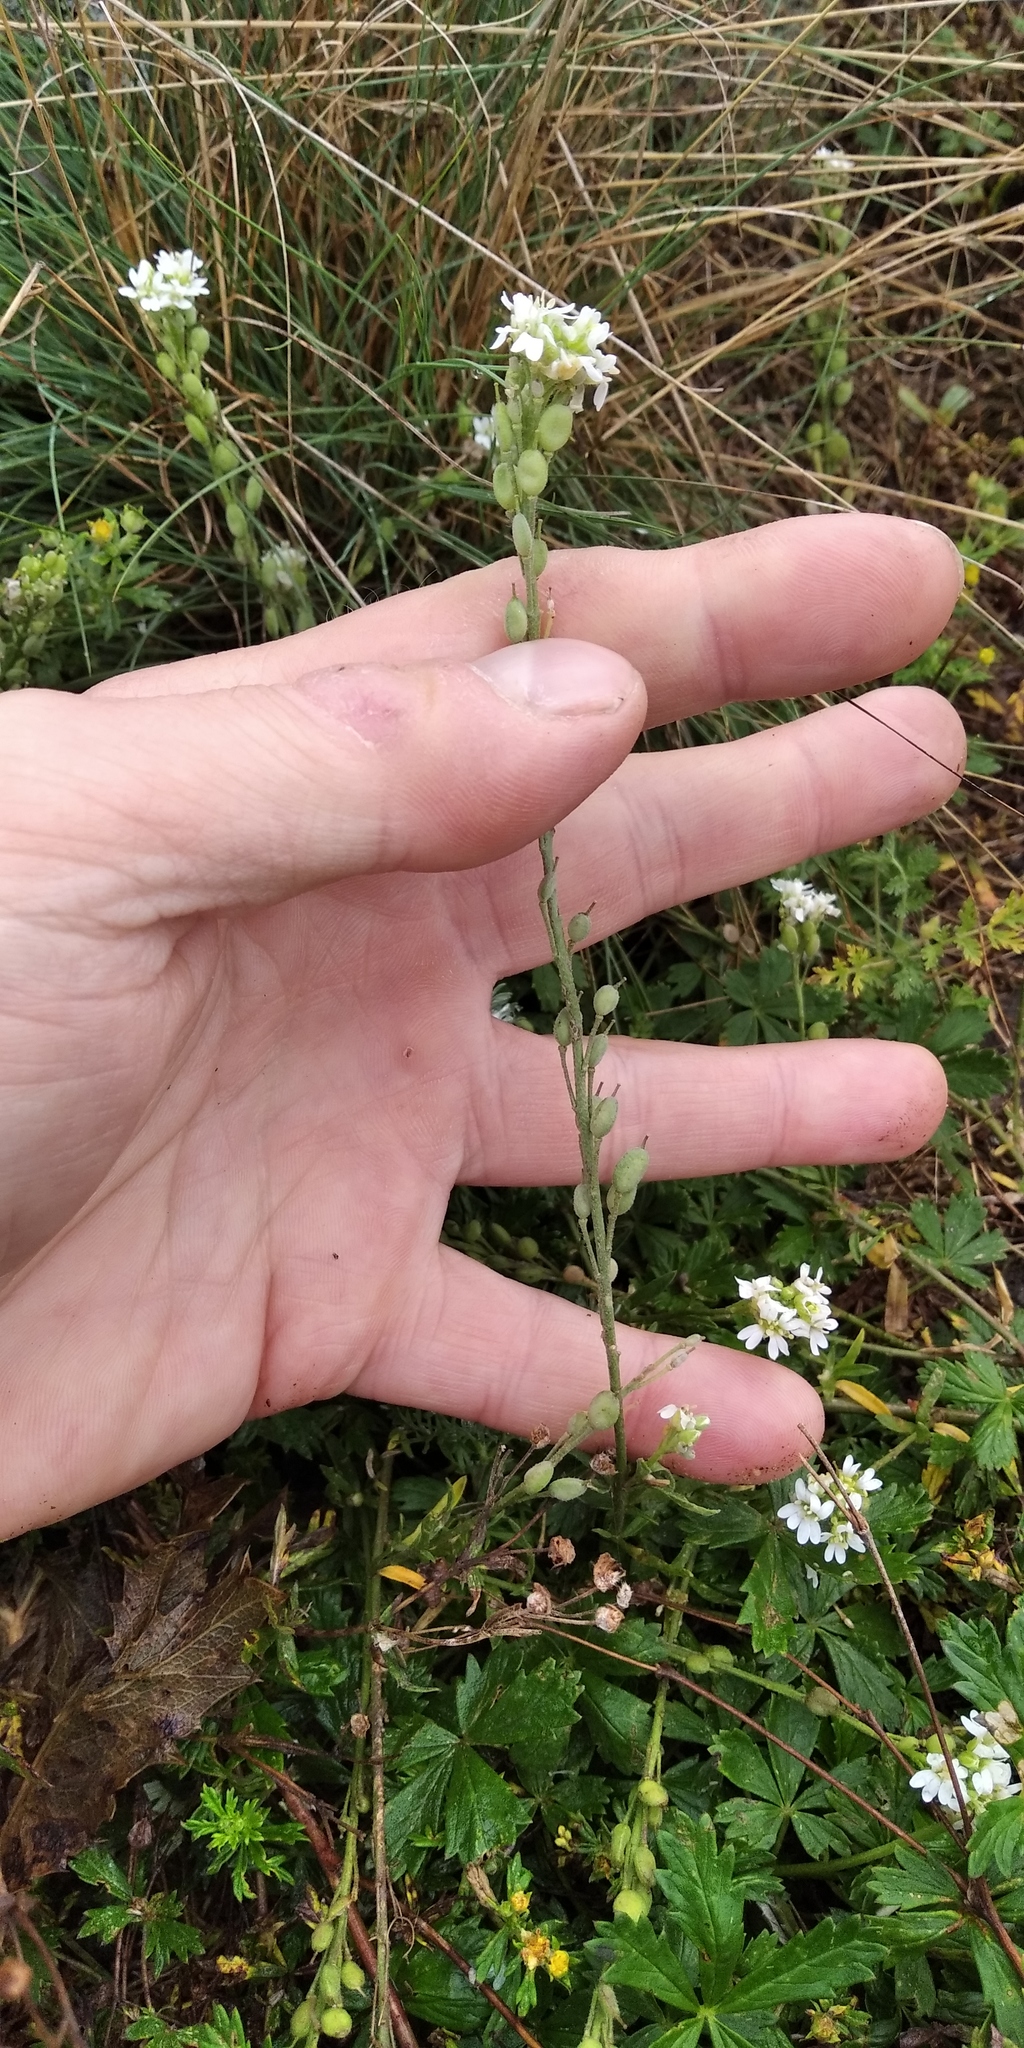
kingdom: Plantae
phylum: Tracheophyta
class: Magnoliopsida
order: Brassicales
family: Brassicaceae
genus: Berteroa
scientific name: Berteroa incana
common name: Hoary alison
